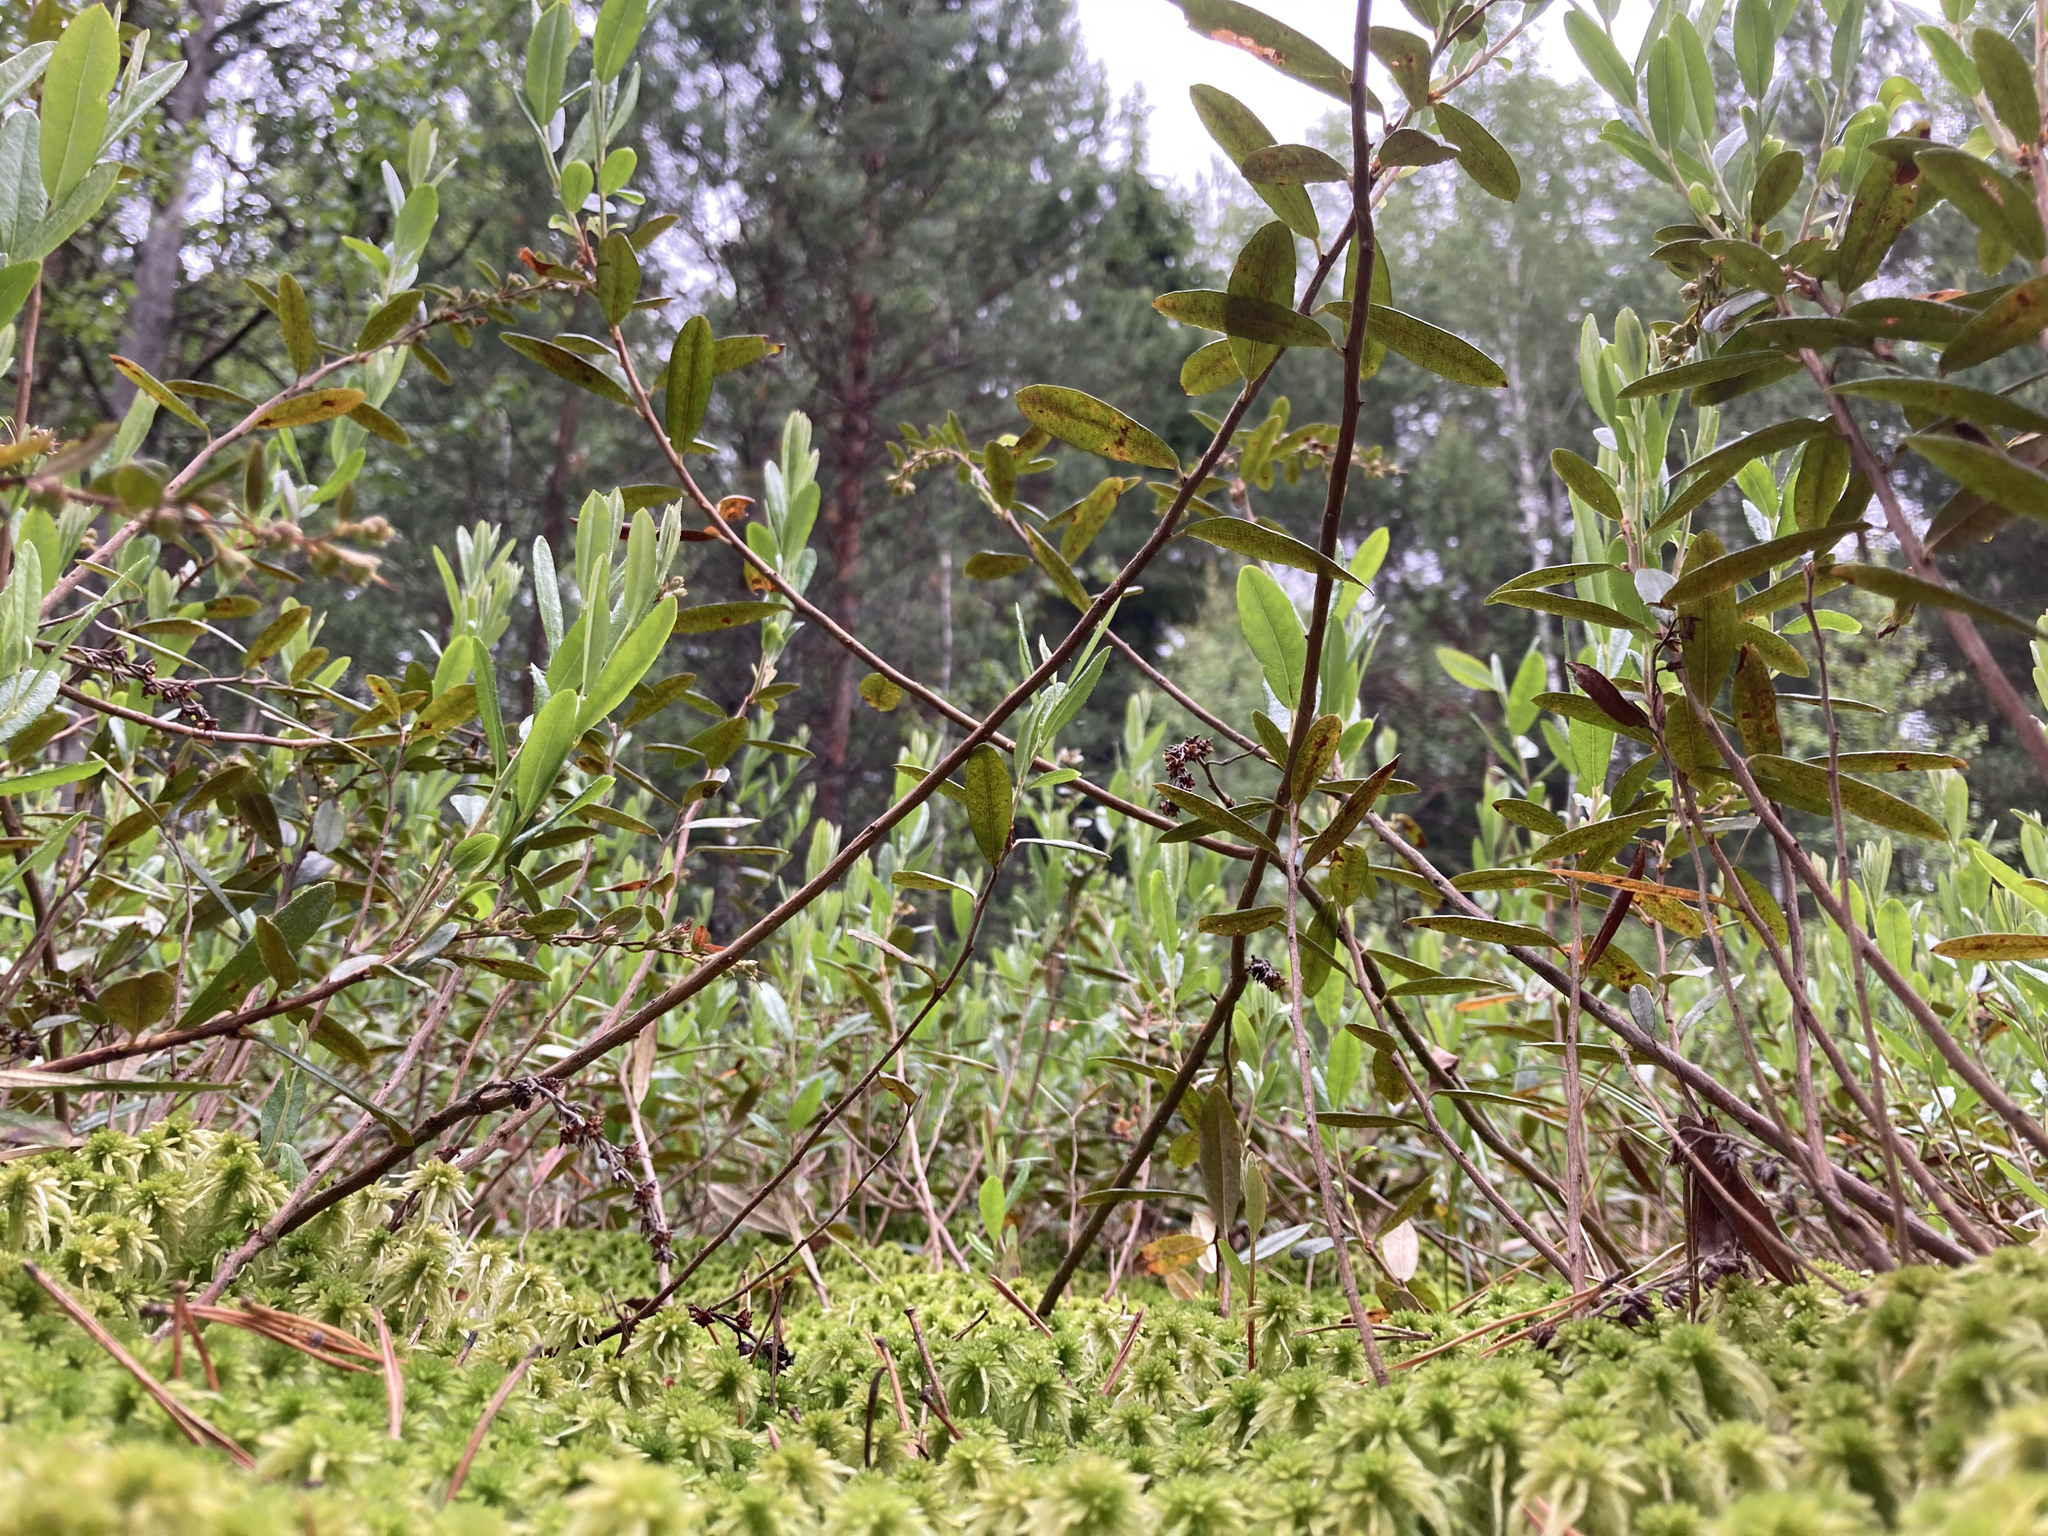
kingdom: Plantae
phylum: Tracheophyta
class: Magnoliopsida
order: Ericales
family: Ericaceae
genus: Chamaedaphne
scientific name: Chamaedaphne calyculata
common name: Leatherleaf
